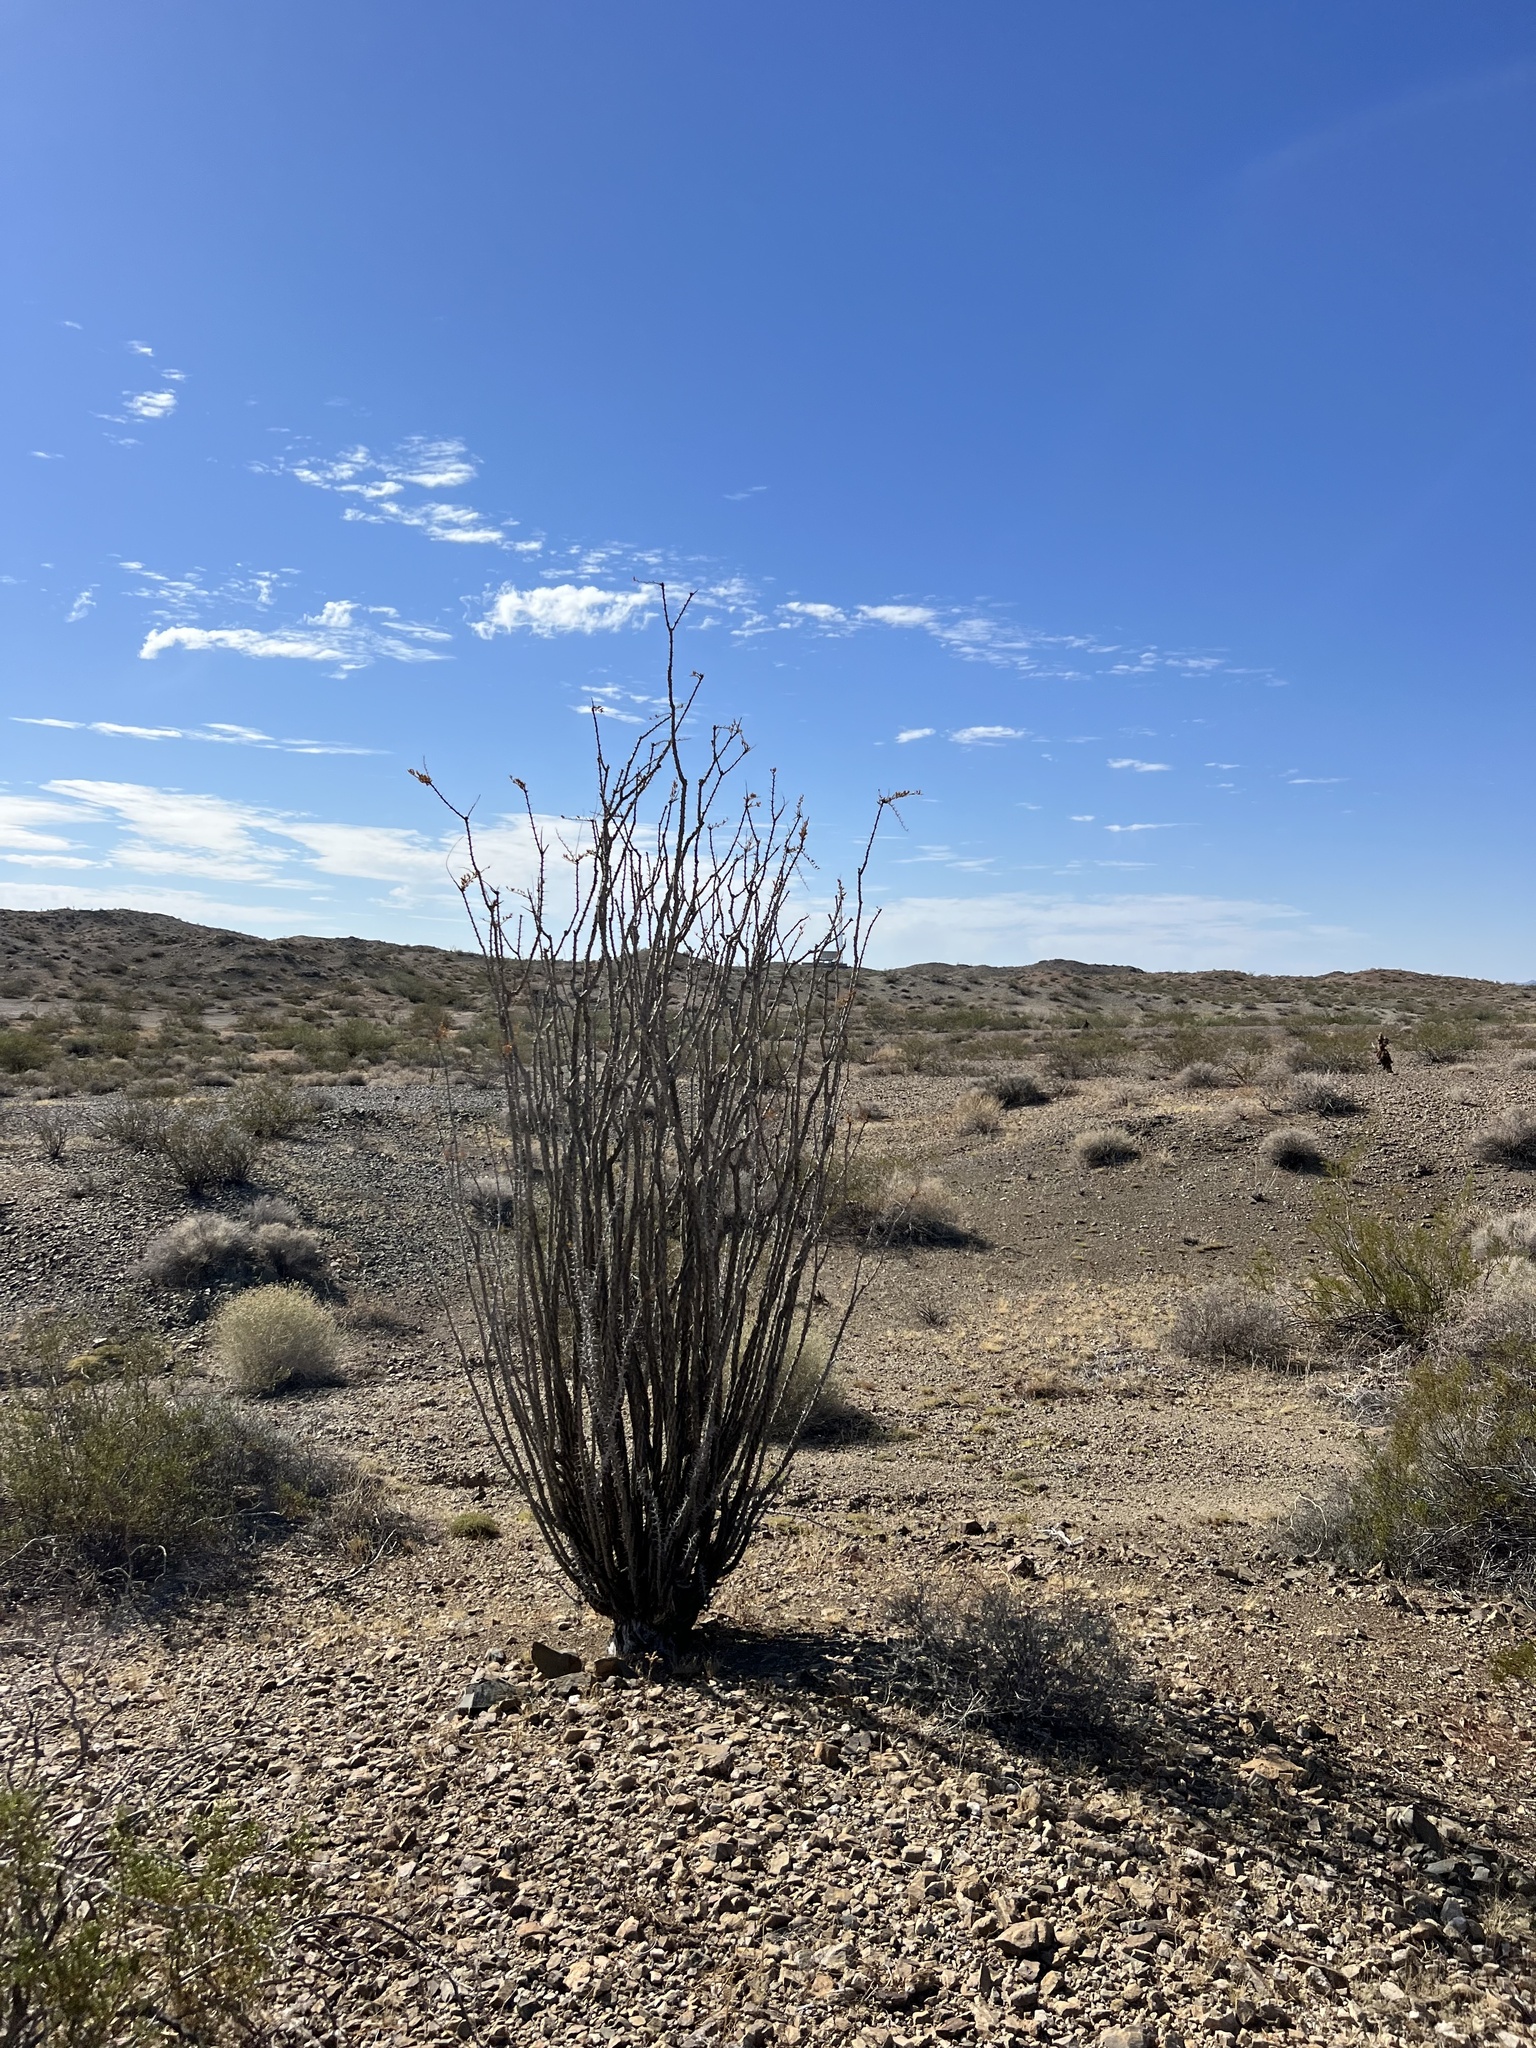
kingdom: Plantae
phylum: Tracheophyta
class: Magnoliopsida
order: Ericales
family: Fouquieriaceae
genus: Fouquieria
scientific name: Fouquieria splendens
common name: Vine-cactus
